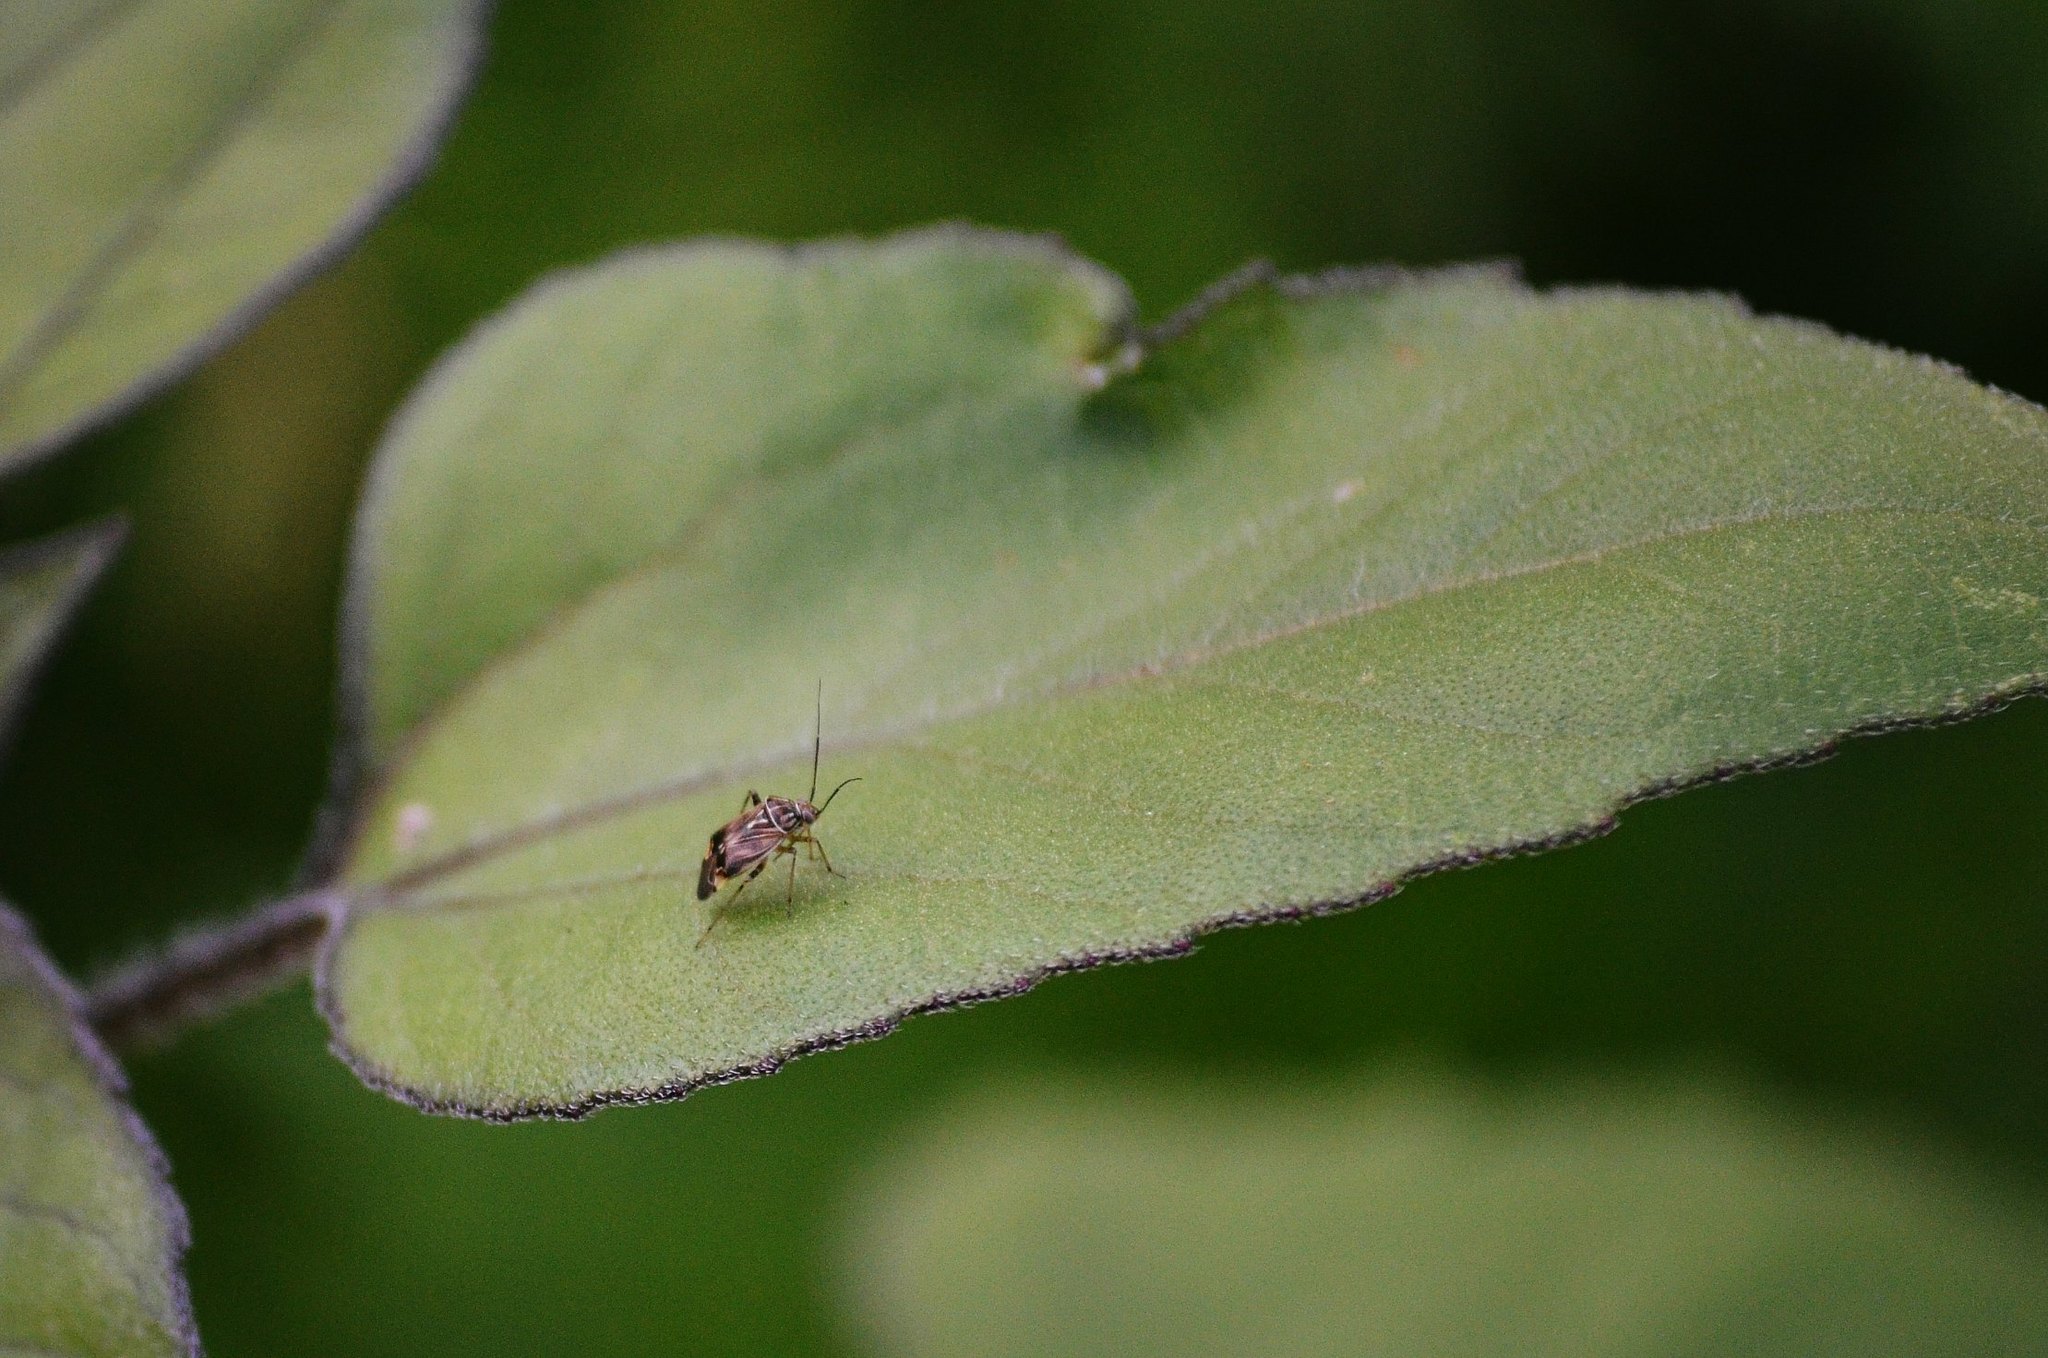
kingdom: Animalia
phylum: Arthropoda
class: Insecta
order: Hemiptera
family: Miridae
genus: Lygus
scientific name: Lygus lineolaris
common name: North american tarnished plant bug
